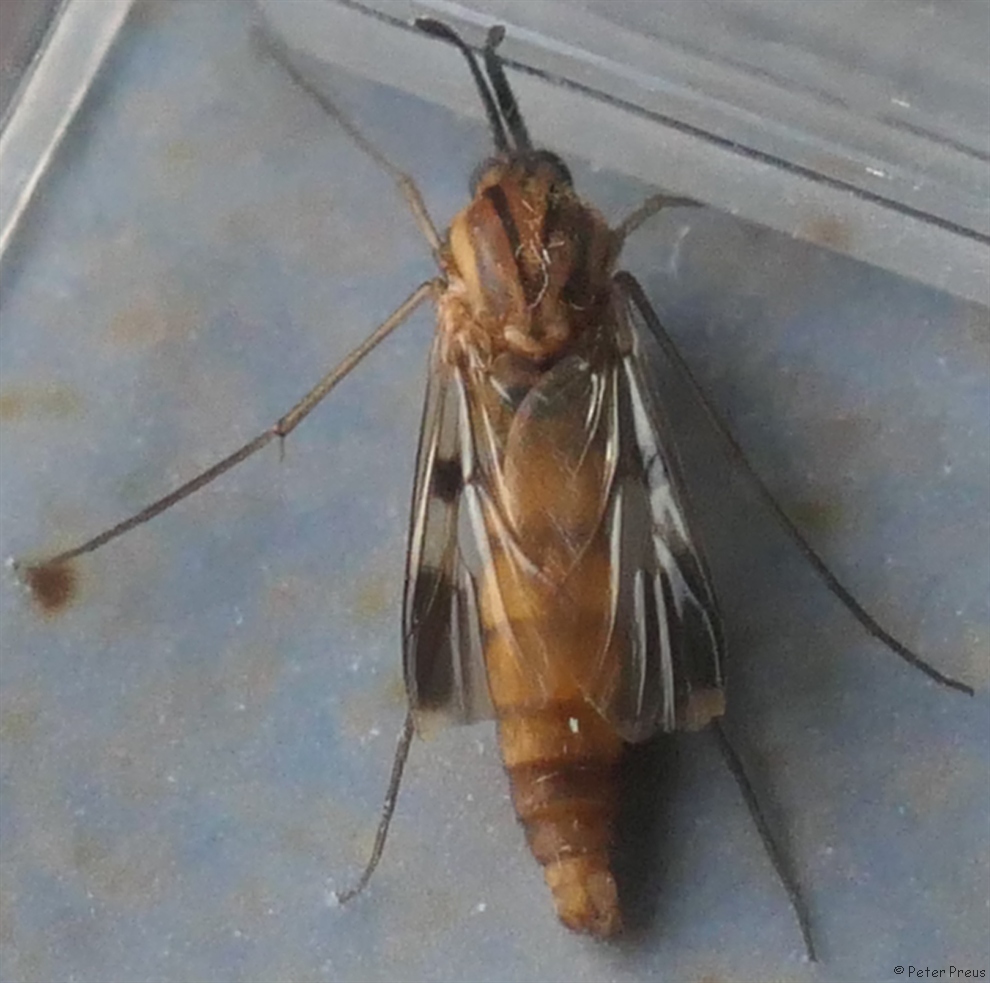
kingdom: Animalia
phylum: Arthropoda
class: Insecta
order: Diptera
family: Keroplatidae
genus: Keroplatus
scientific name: Keroplatus tipuloides
